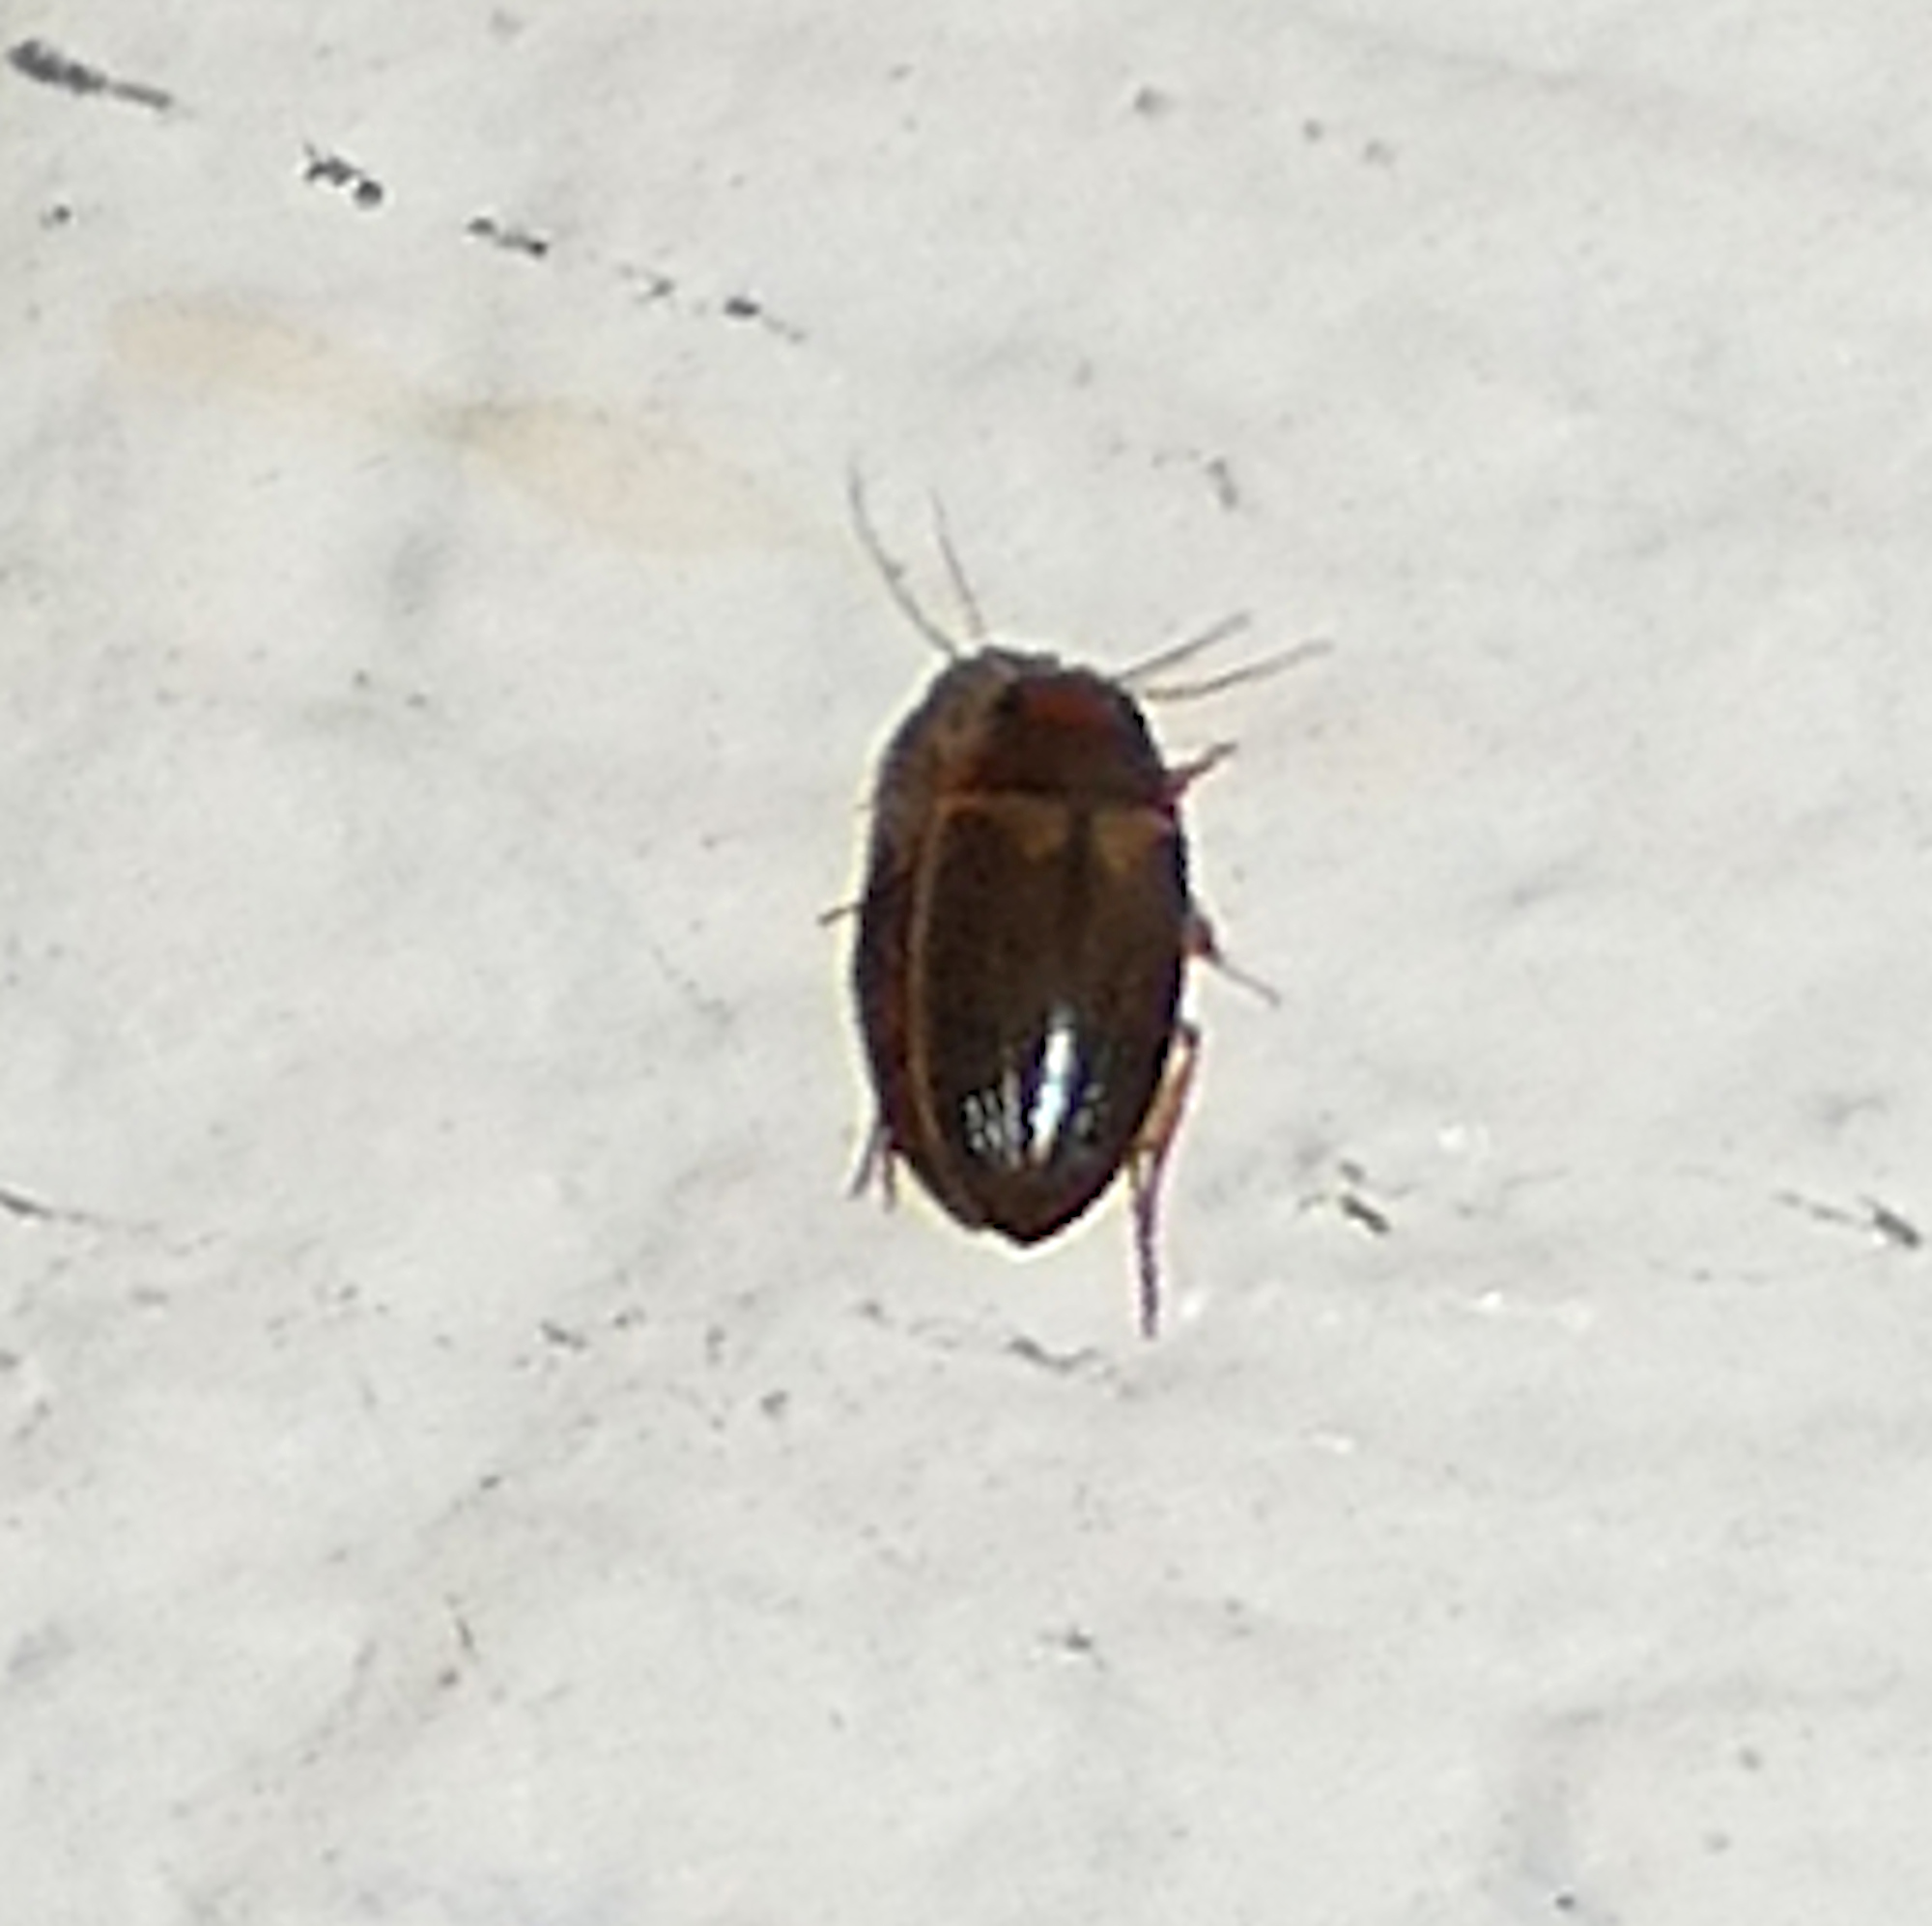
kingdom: Animalia
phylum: Arthropoda
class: Insecta
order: Coleoptera
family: Dytiscidae
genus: Copelatus
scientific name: Copelatus debilis
